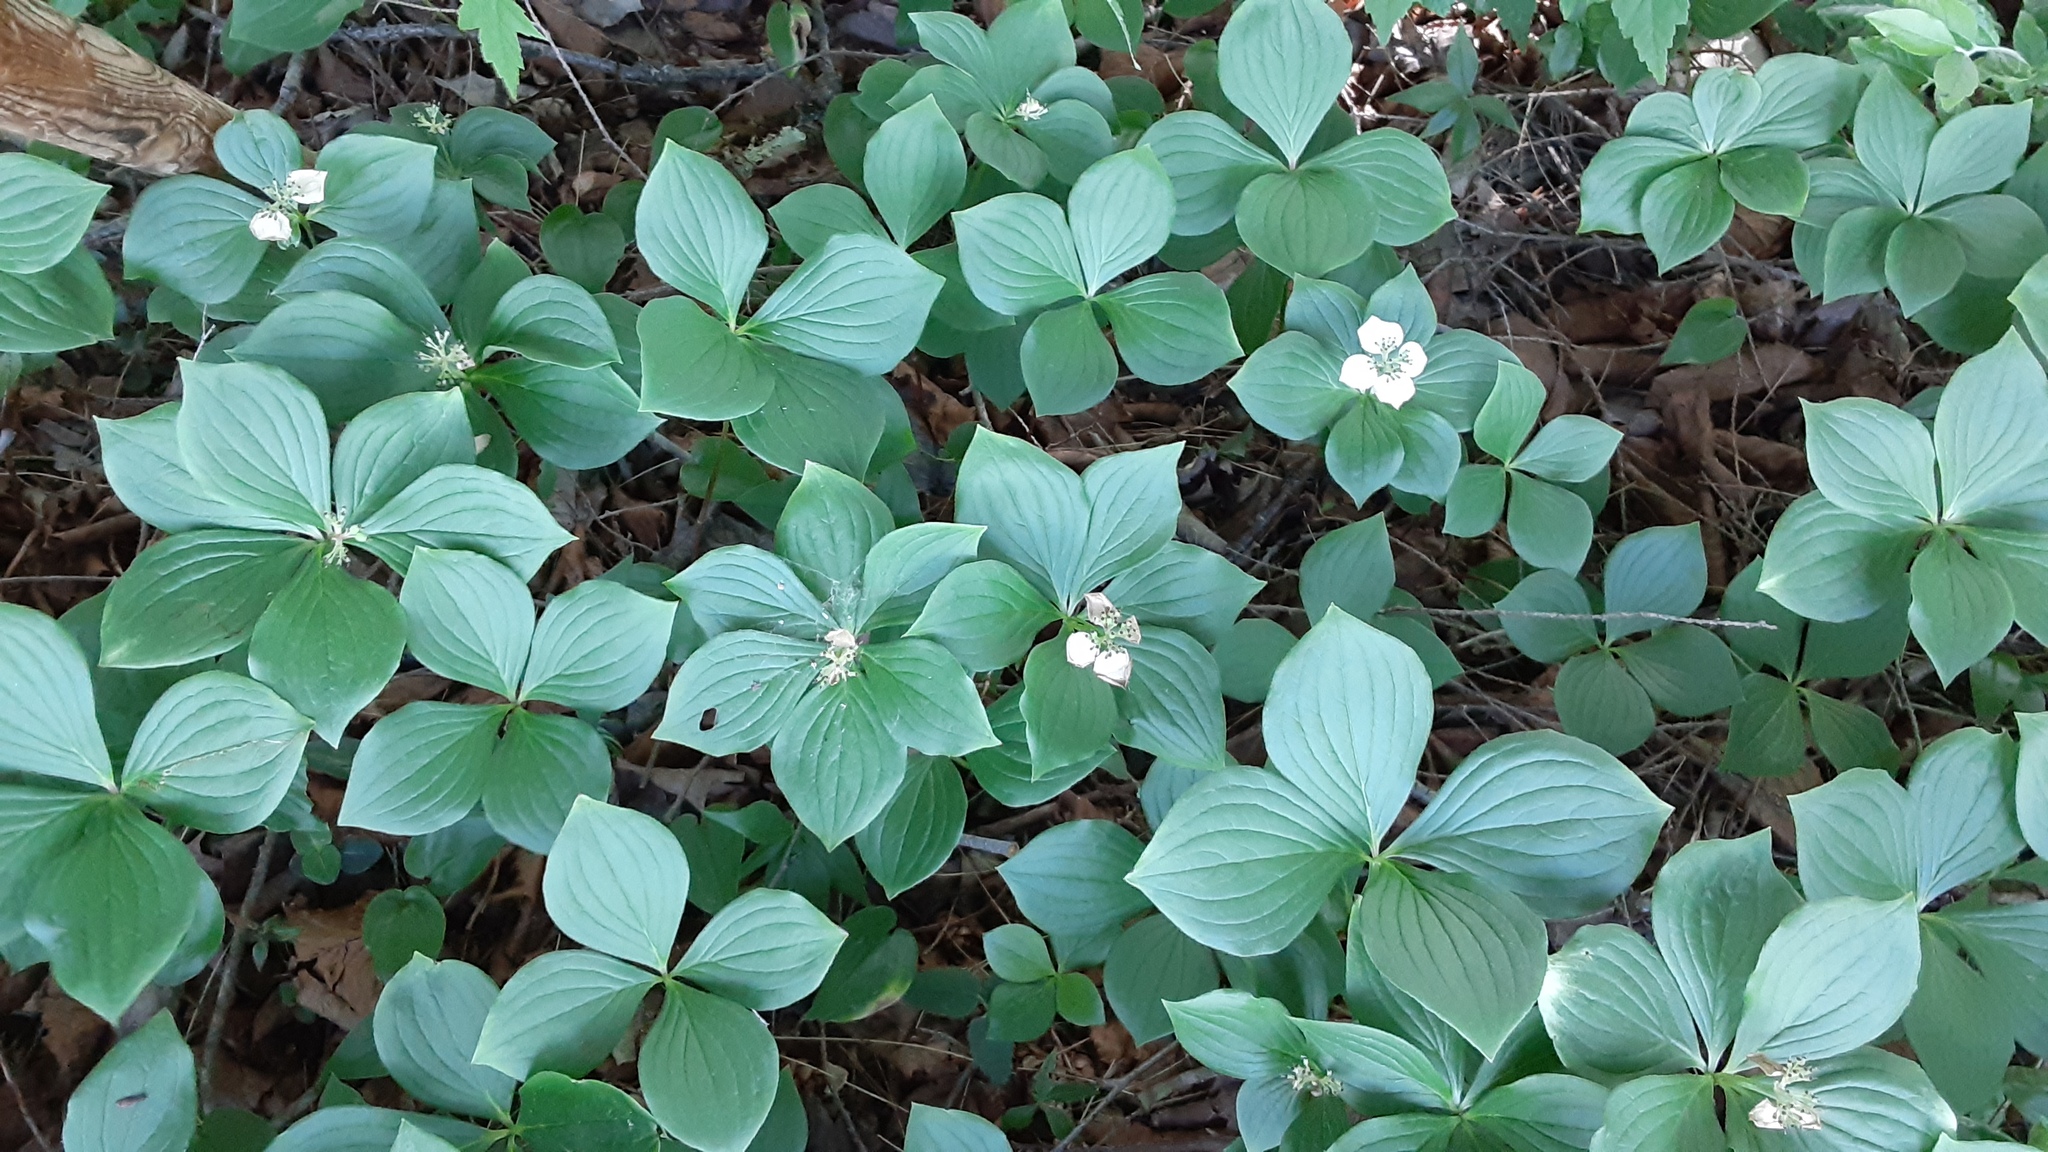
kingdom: Plantae
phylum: Tracheophyta
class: Magnoliopsida
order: Cornales
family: Cornaceae
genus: Cornus
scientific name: Cornus canadensis
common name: Creeping dogwood
